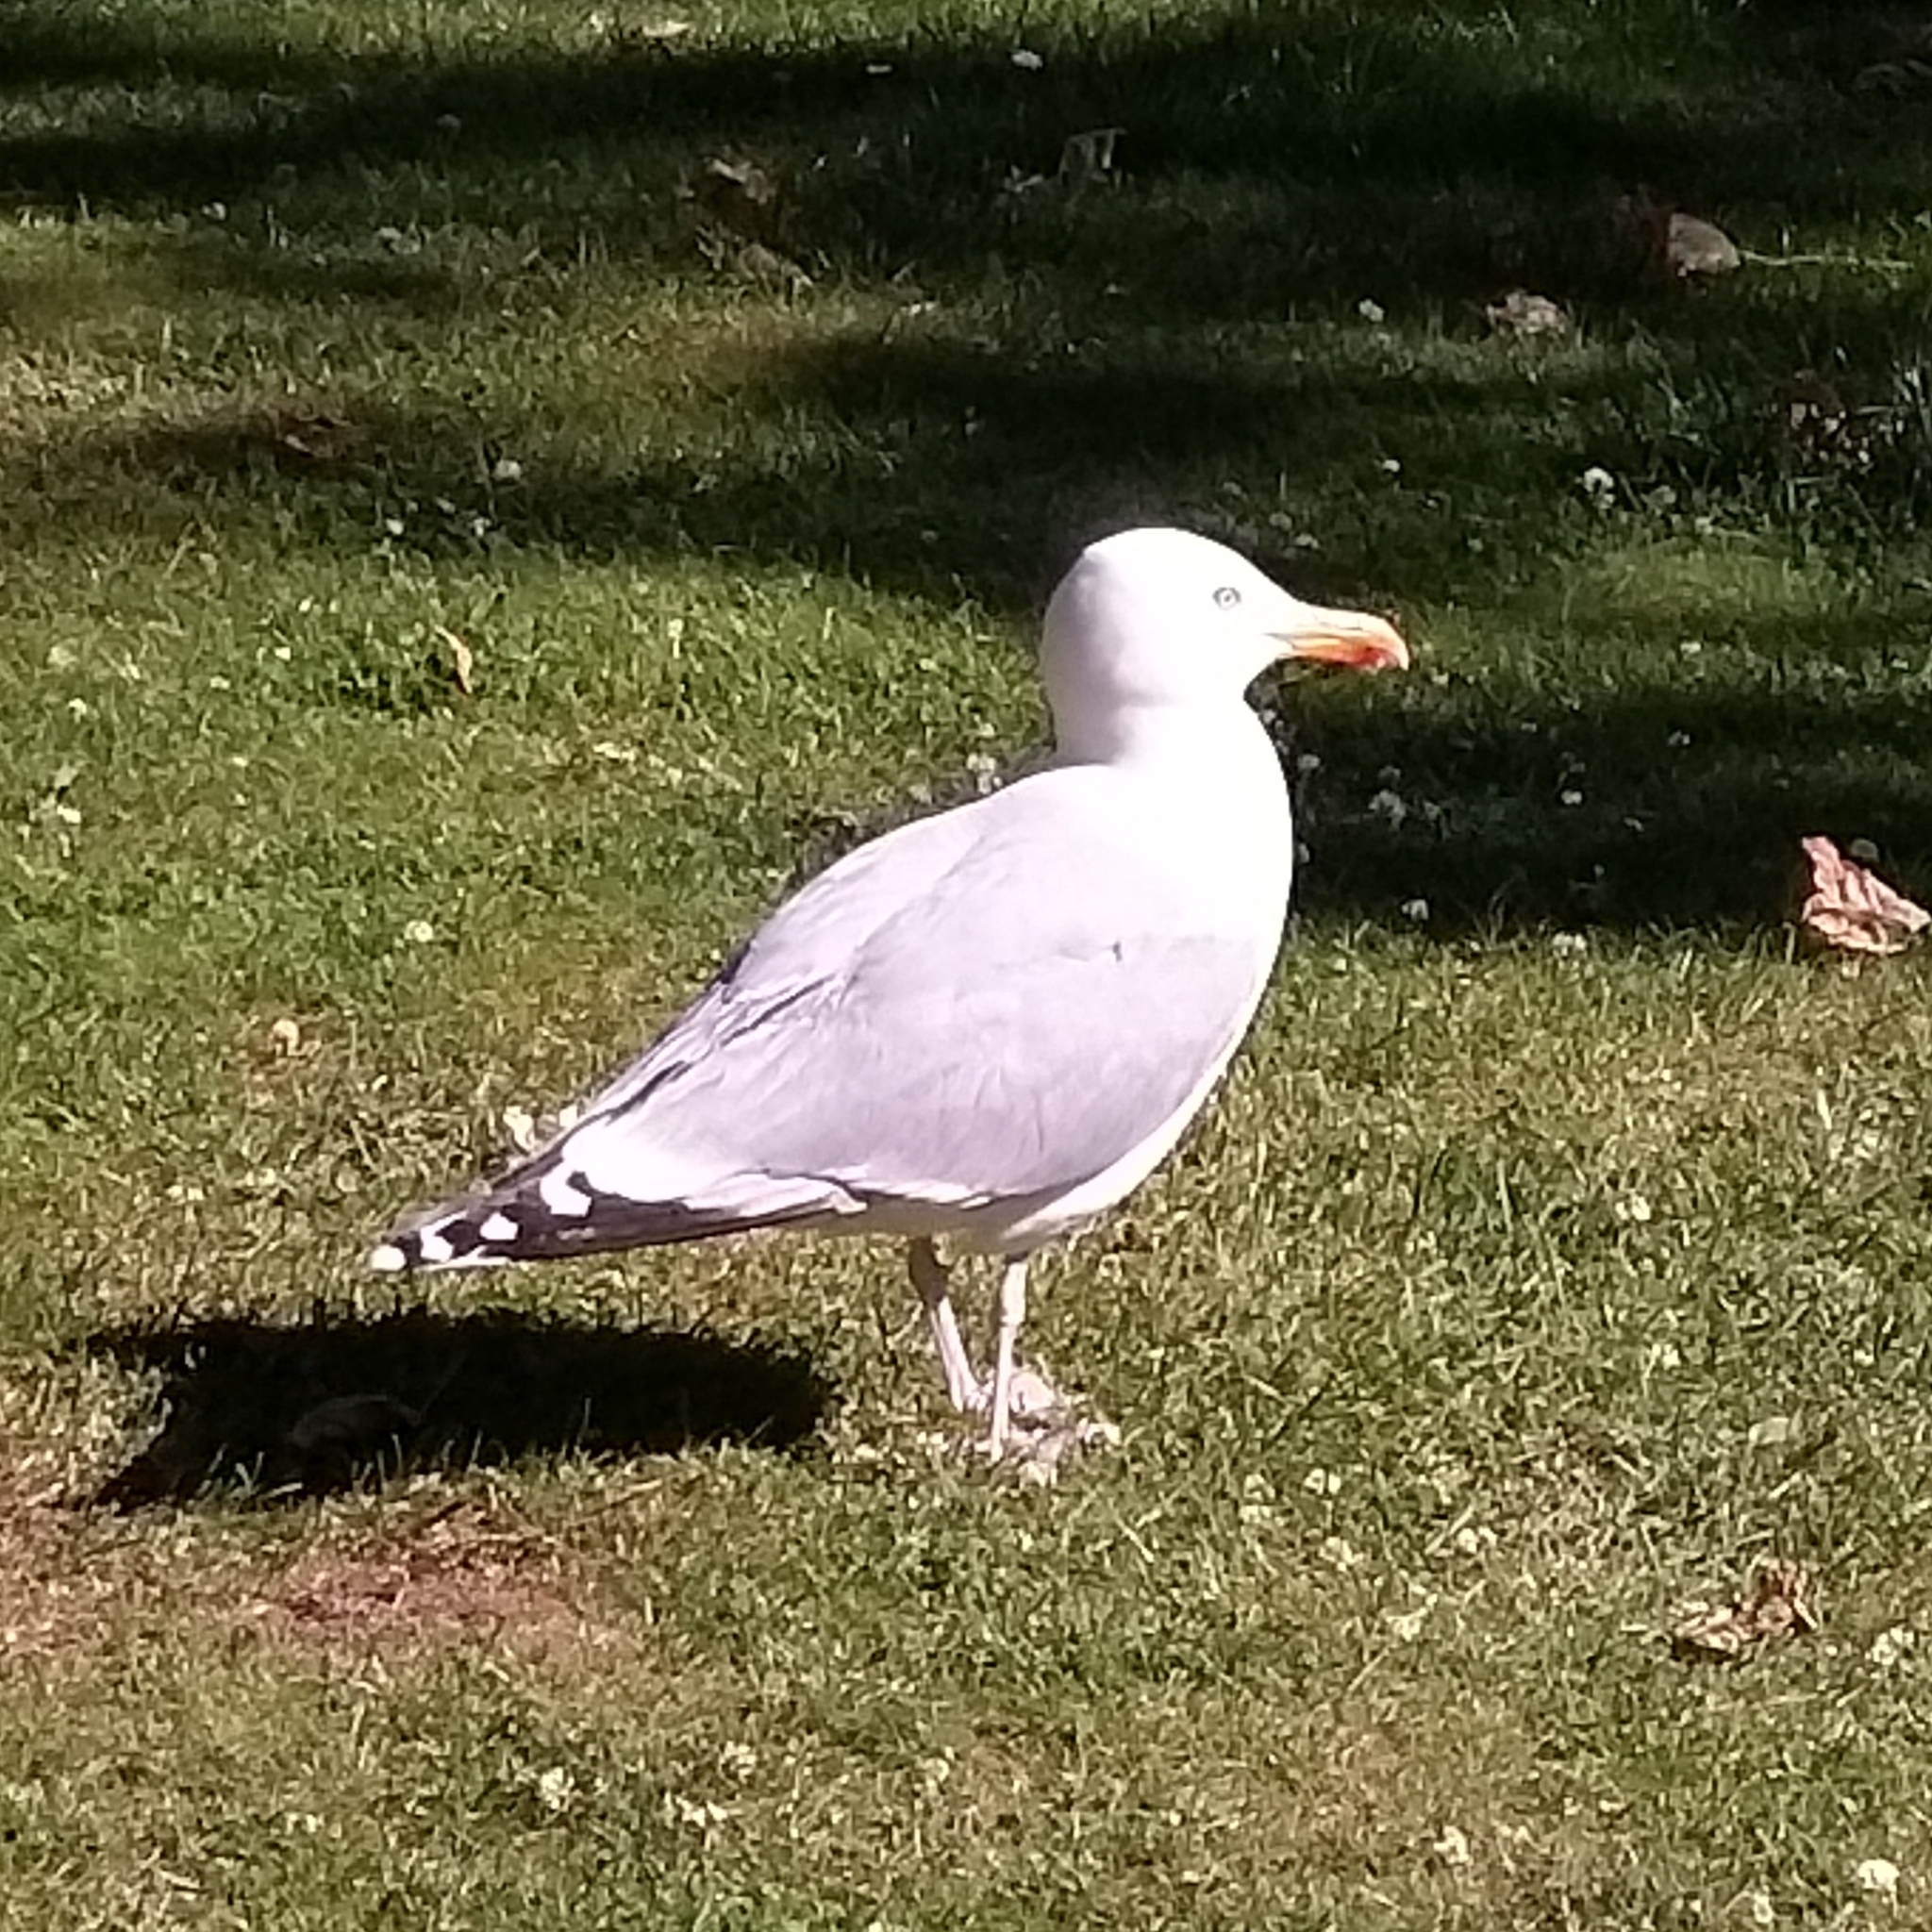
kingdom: Animalia
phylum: Chordata
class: Aves
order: Charadriiformes
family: Laridae
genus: Larus
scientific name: Larus argentatus
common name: Herring gull
